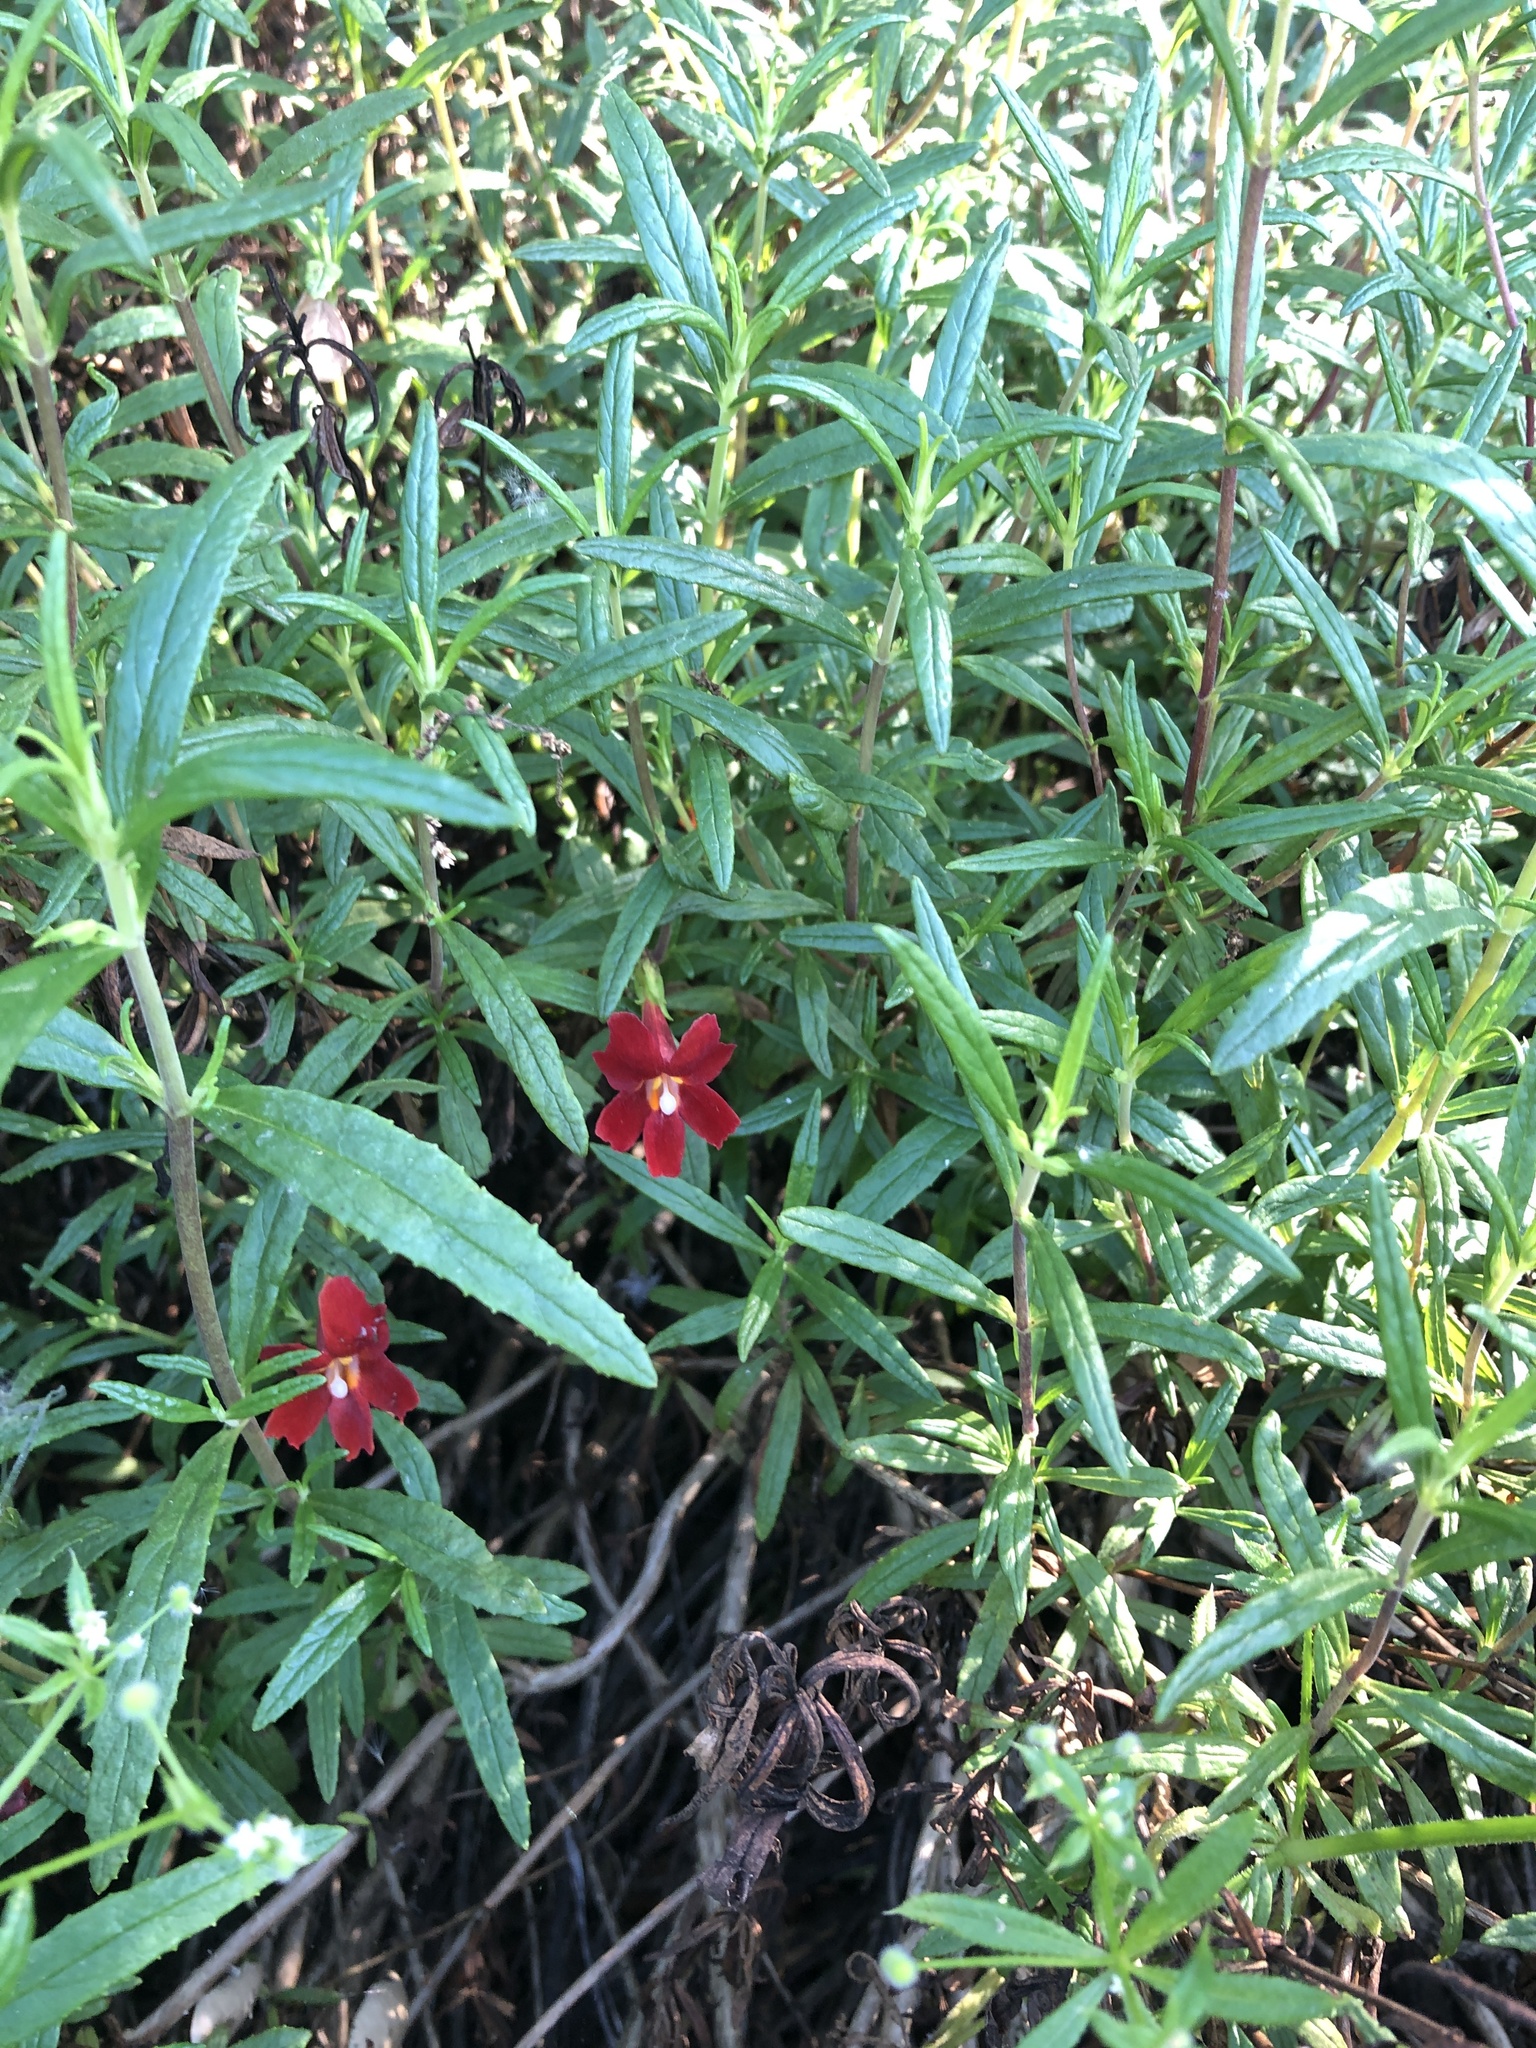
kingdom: Plantae
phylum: Tracheophyta
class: Magnoliopsida
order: Lamiales
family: Phrymaceae
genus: Diplacus
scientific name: Diplacus puniceus
